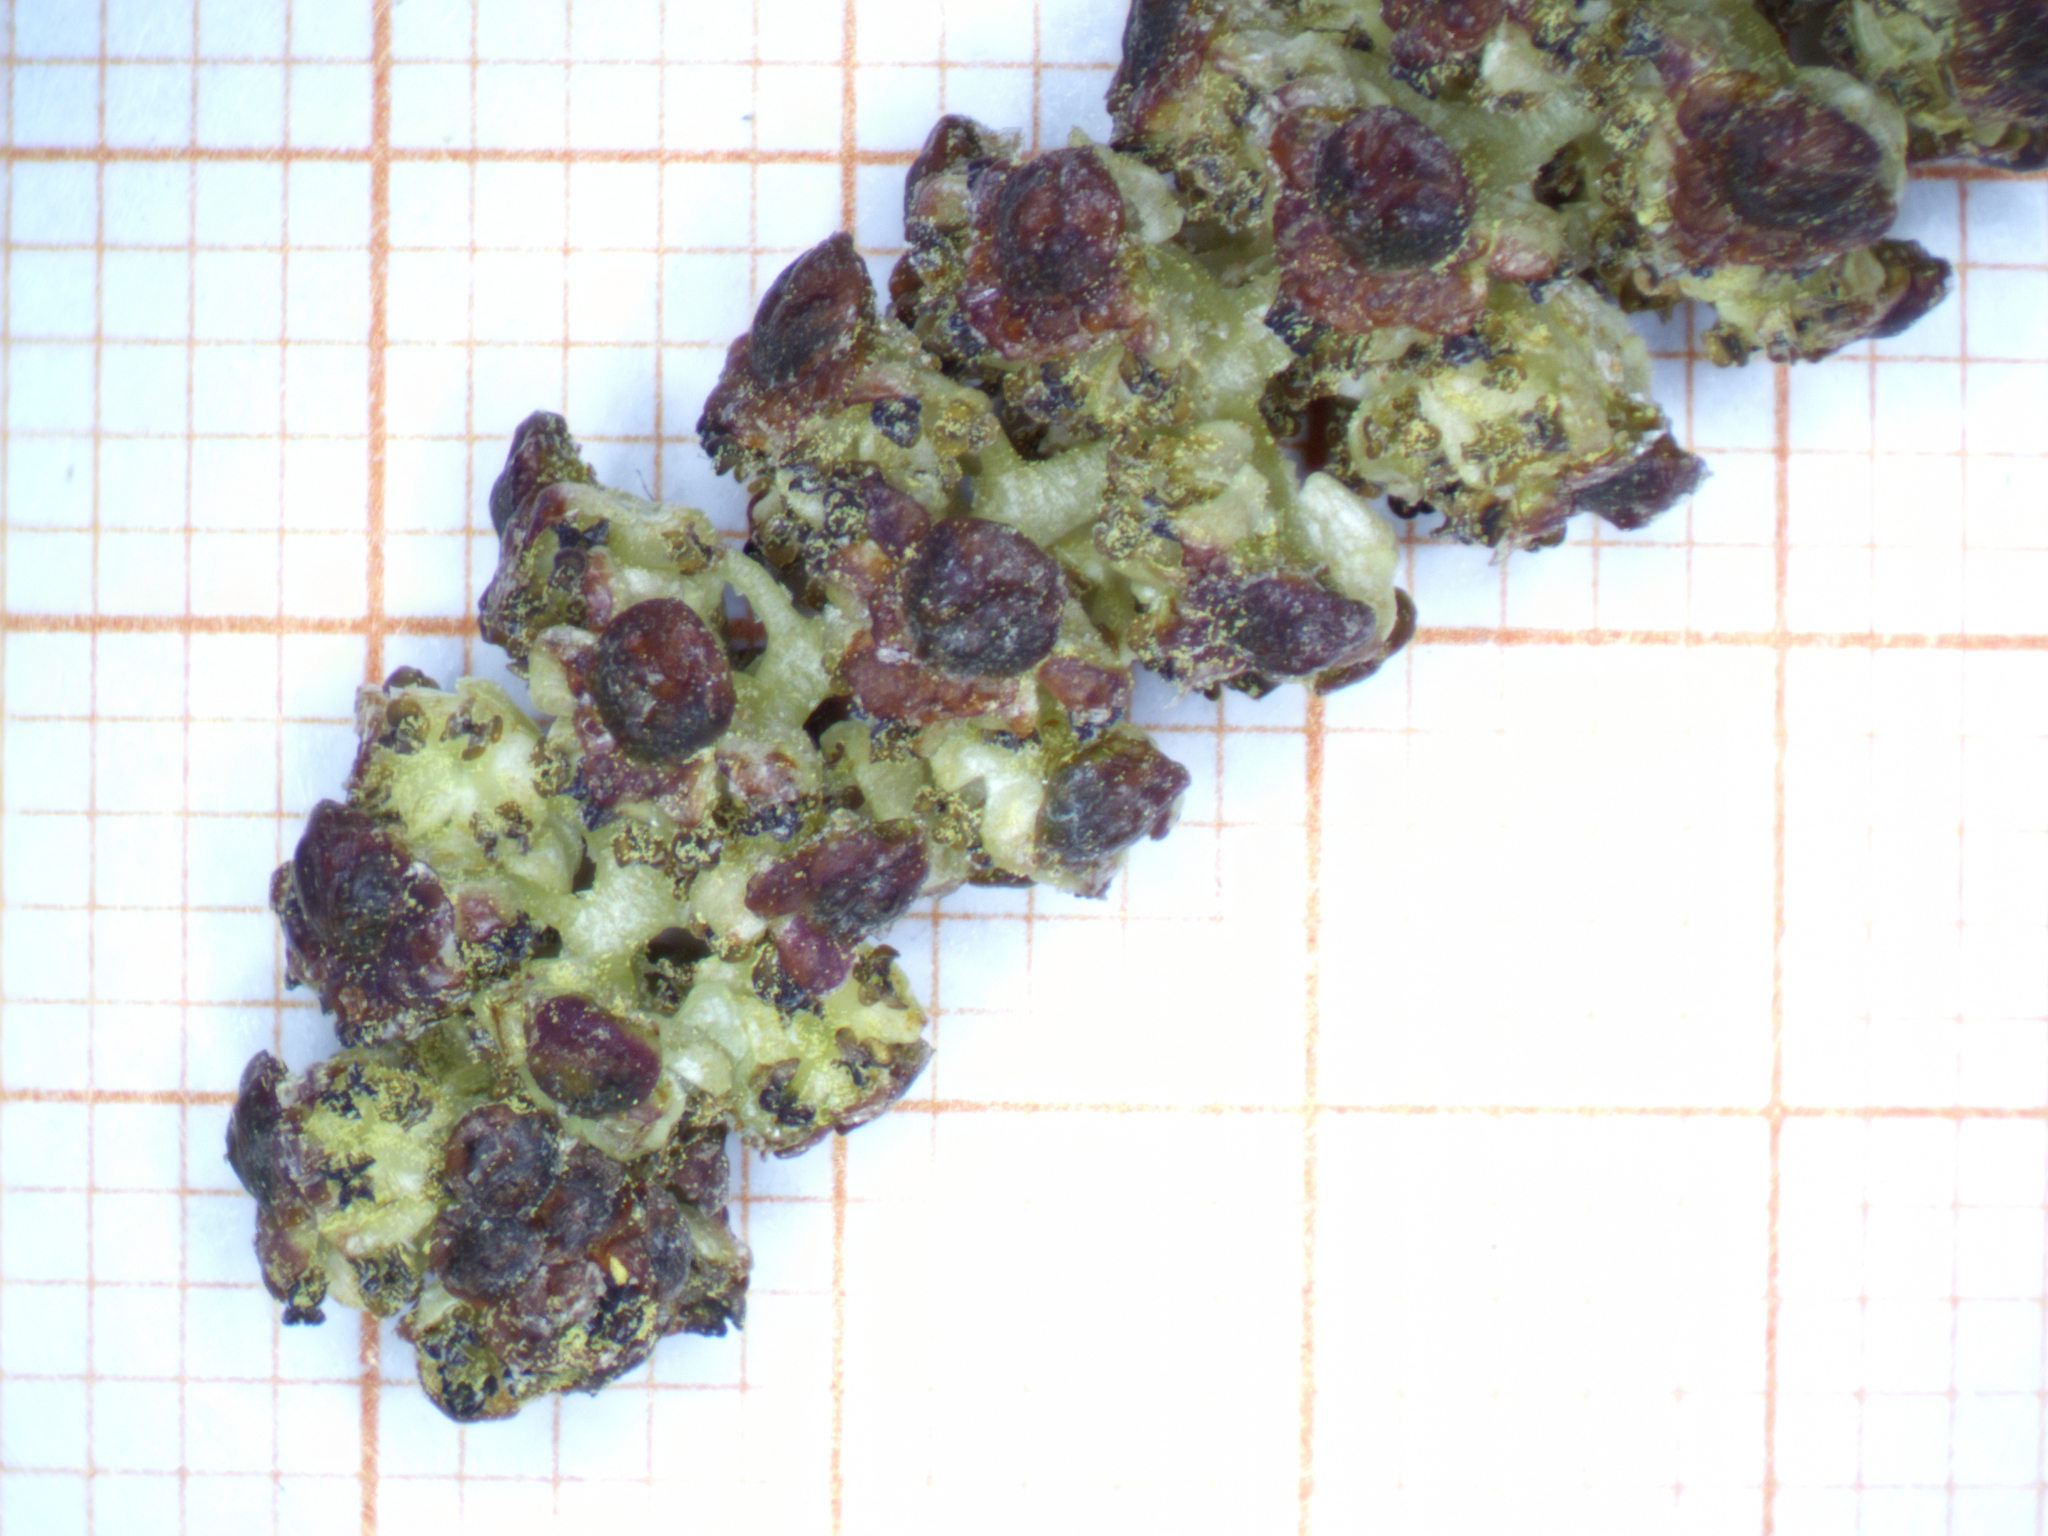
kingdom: Plantae
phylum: Tracheophyta
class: Magnoliopsida
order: Fagales
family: Betulaceae
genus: Alnus
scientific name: Alnus glutinosa
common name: Black alder
